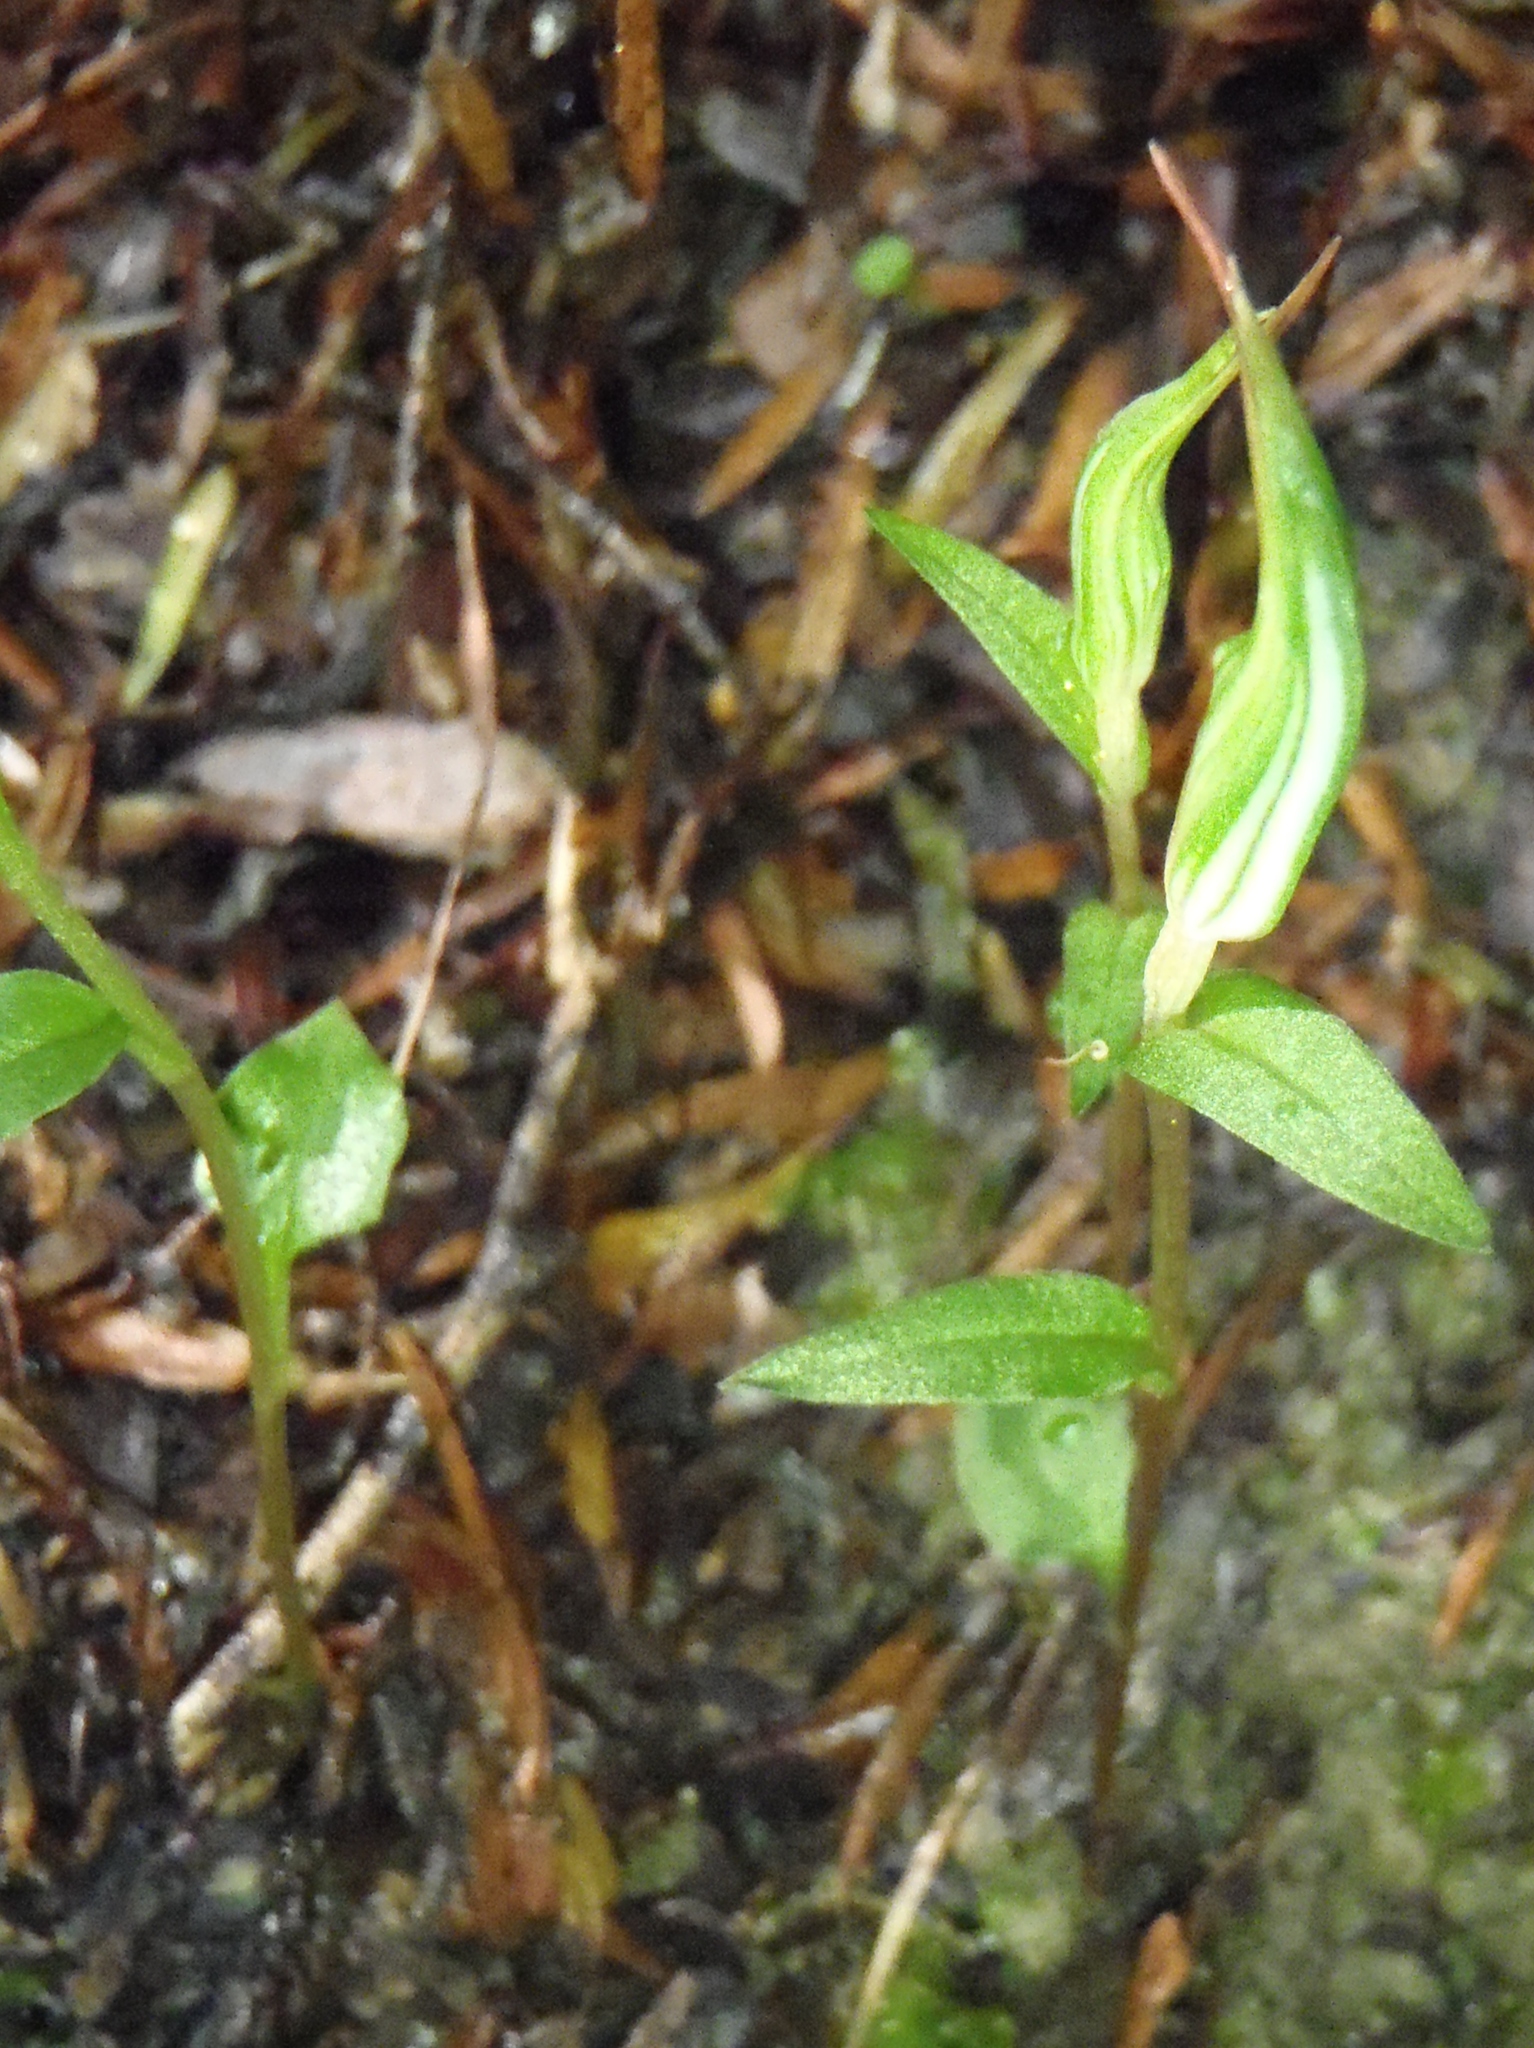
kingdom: Plantae
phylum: Tracheophyta
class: Liliopsida
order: Asparagales
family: Orchidaceae
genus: Pterostylis
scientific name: Pterostylis alobula
